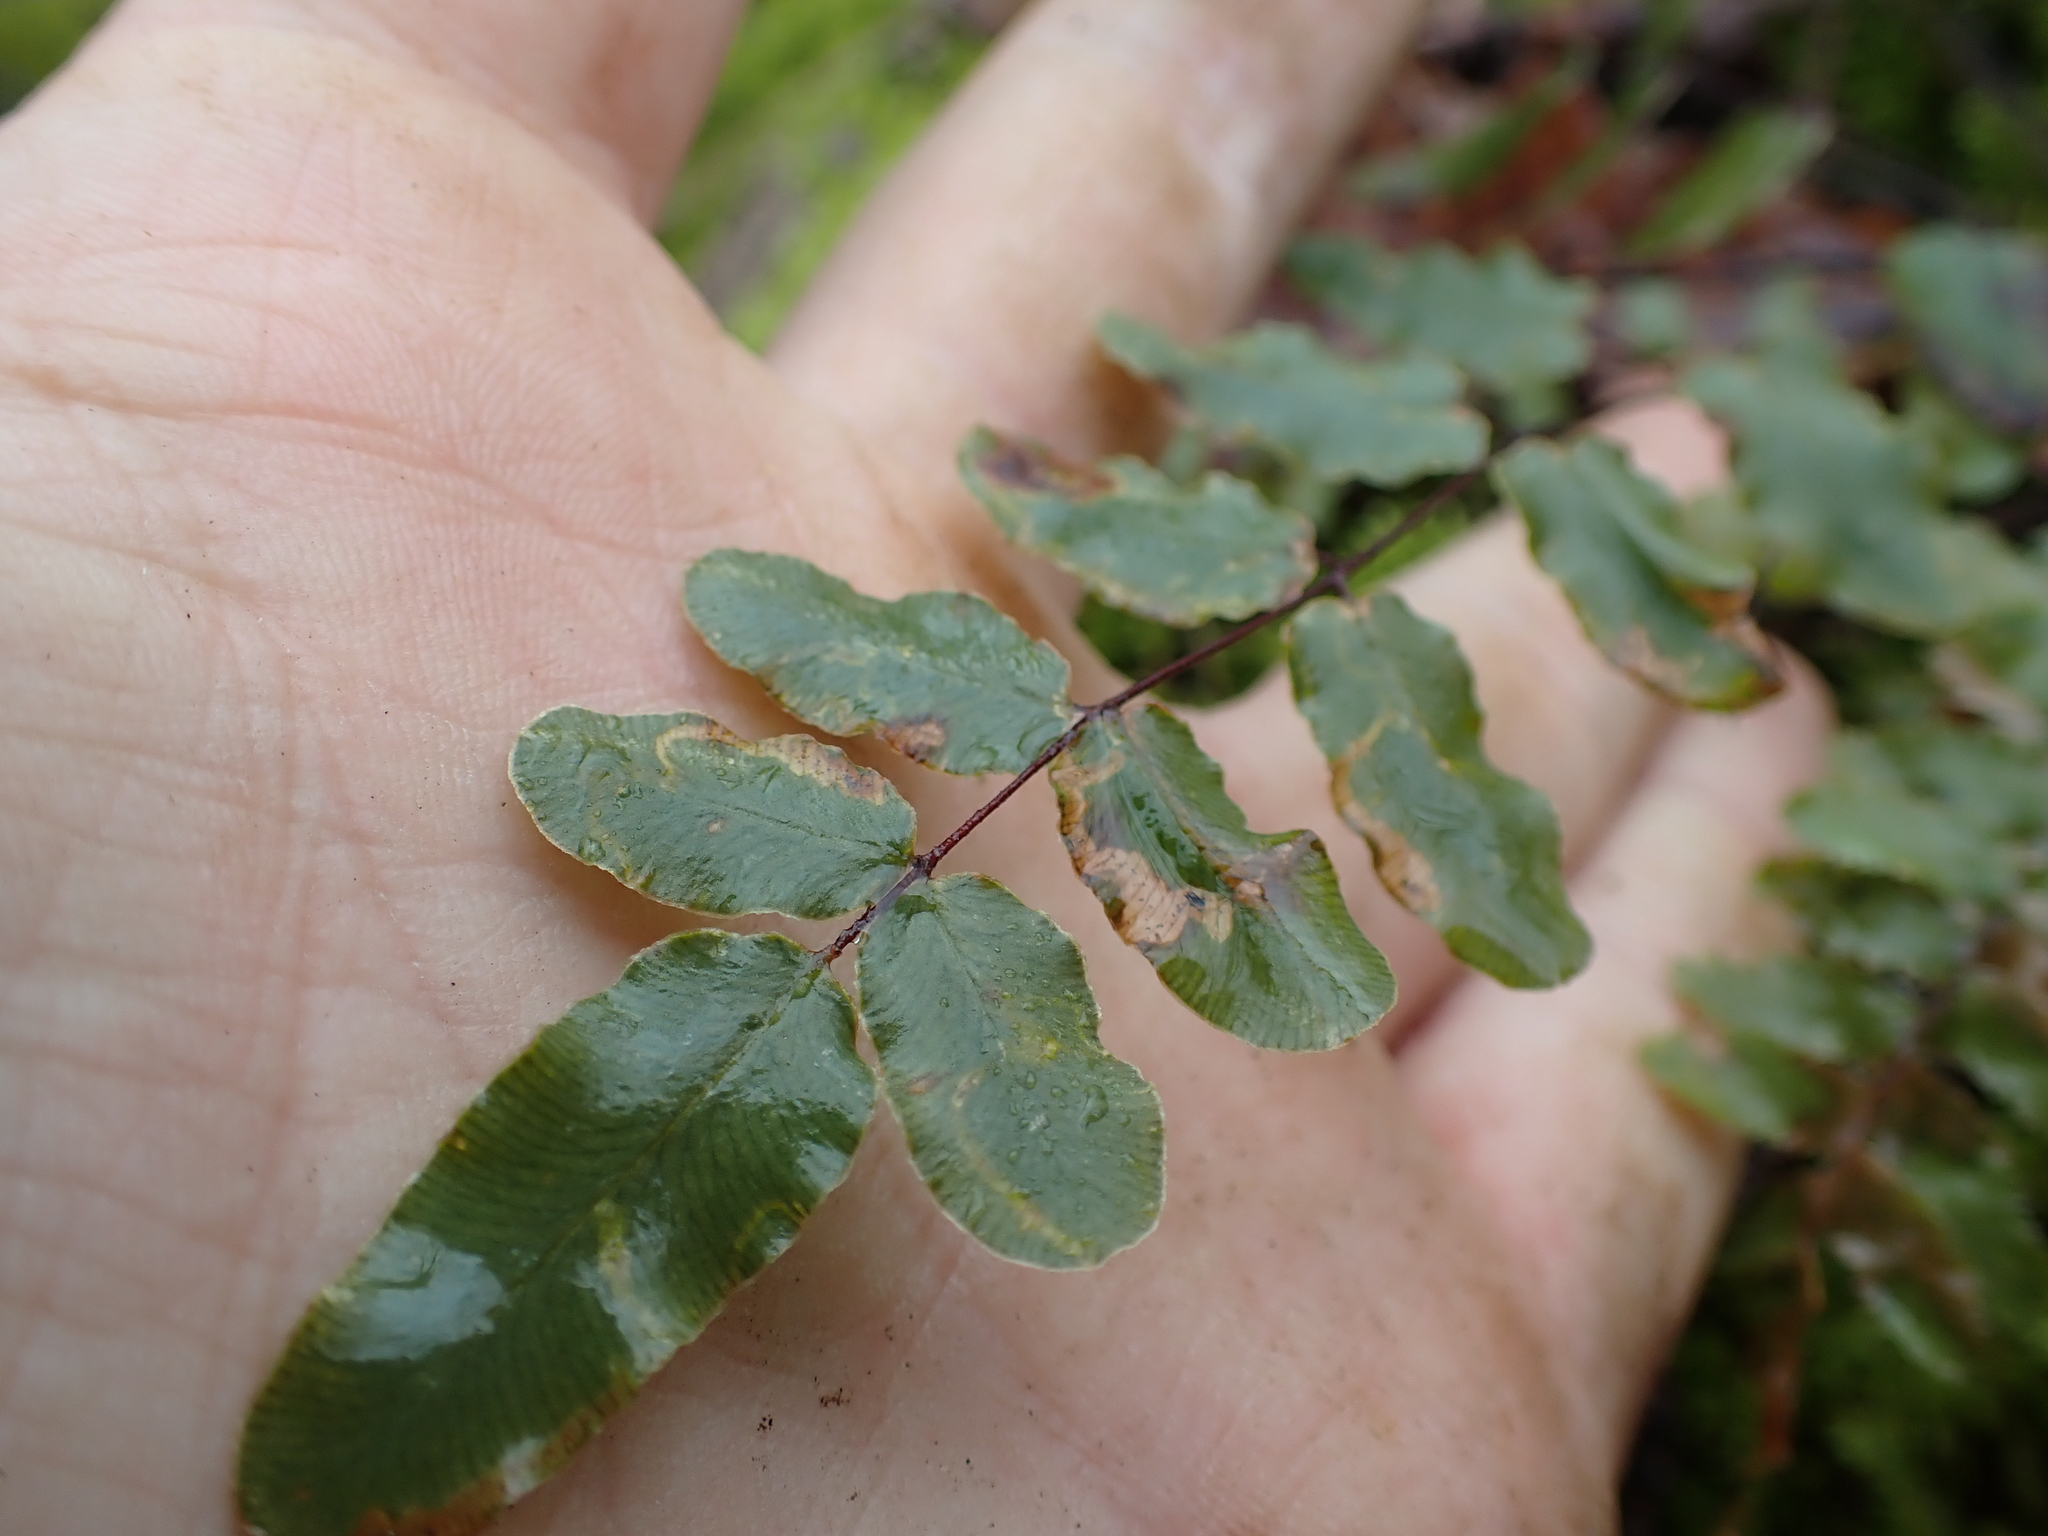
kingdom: Animalia
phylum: Arthropoda
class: Insecta
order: Diptera
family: Agromyzidae
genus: Phytoliriomyza
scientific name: Phytoliriomyza felti
